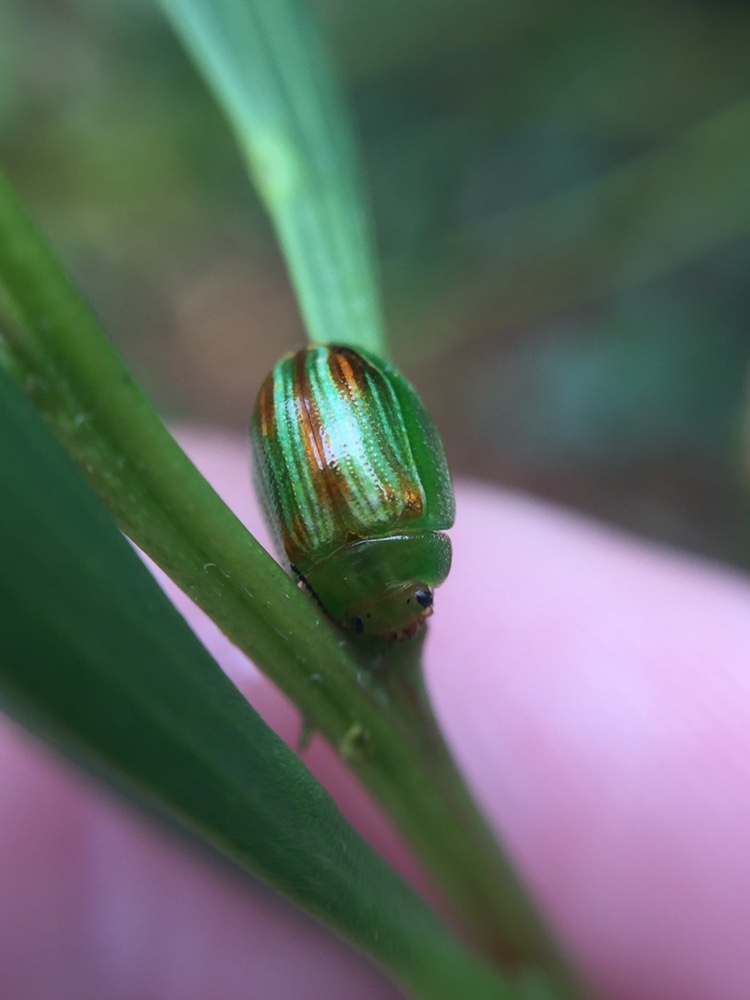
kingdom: Animalia
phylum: Arthropoda
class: Insecta
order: Coleoptera
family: Chrysomelidae
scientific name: Chrysomelidae
